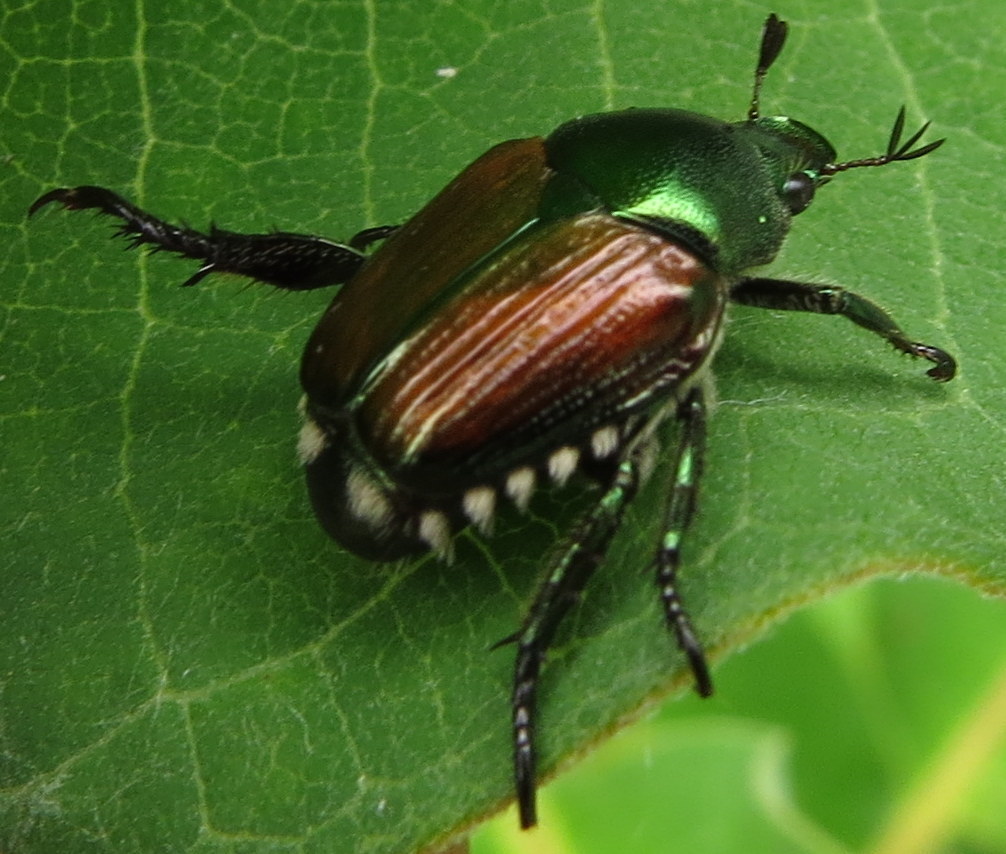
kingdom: Animalia
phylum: Arthropoda
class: Insecta
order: Coleoptera
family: Scarabaeidae
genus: Popillia
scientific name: Popillia japonica
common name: Japanese beetle
